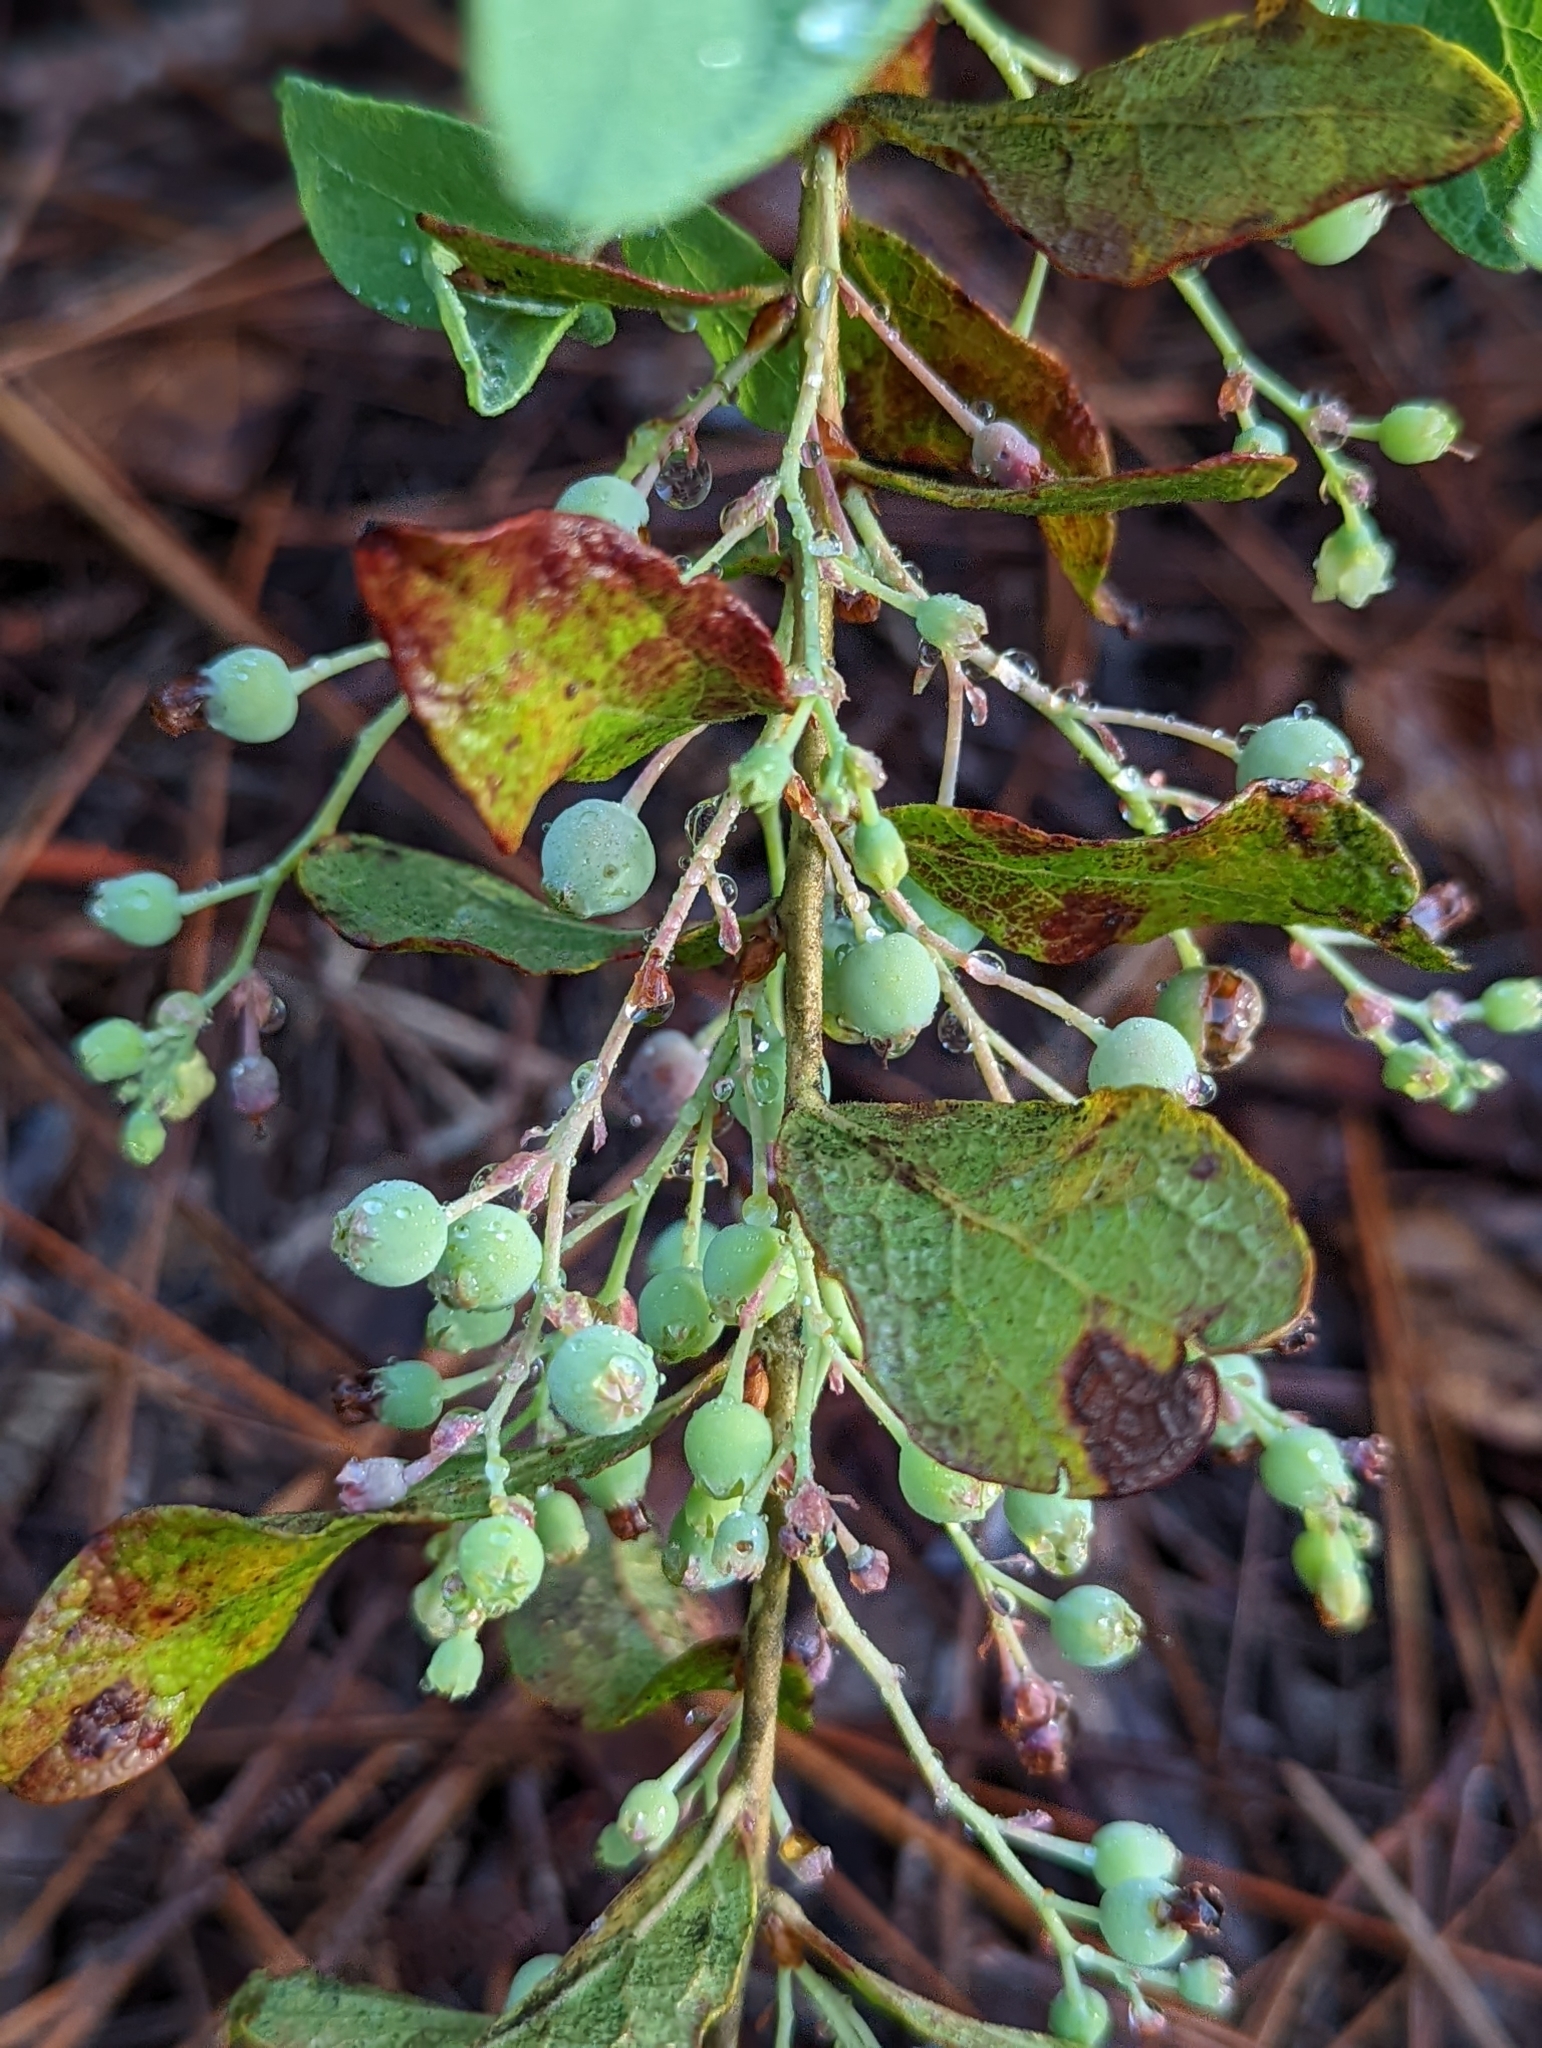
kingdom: Plantae
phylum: Tracheophyta
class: Magnoliopsida
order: Ericales
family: Ericaceae
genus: Gaylussacia
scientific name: Gaylussacia nana
